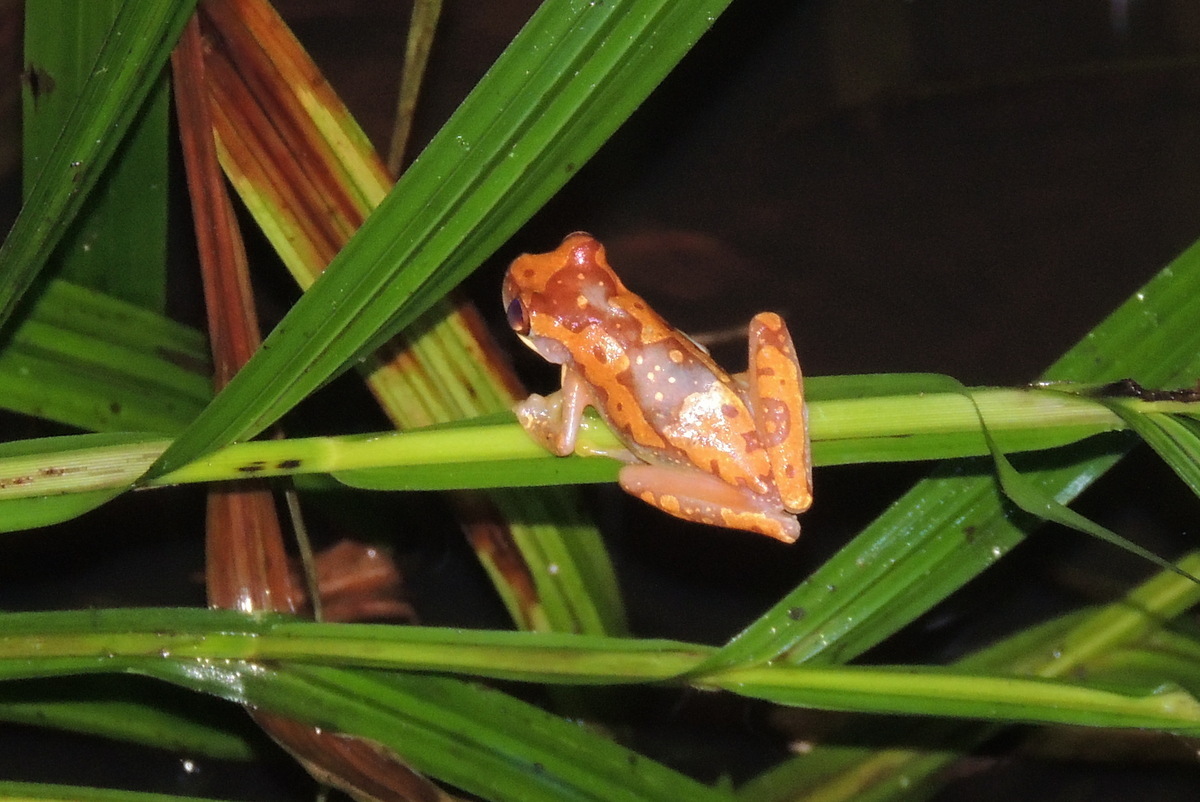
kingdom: Animalia
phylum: Chordata
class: Amphibia
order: Anura
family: Hylidae
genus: Dendropsophus
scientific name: Dendropsophus ebraccatus
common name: Hourglass treefrog
